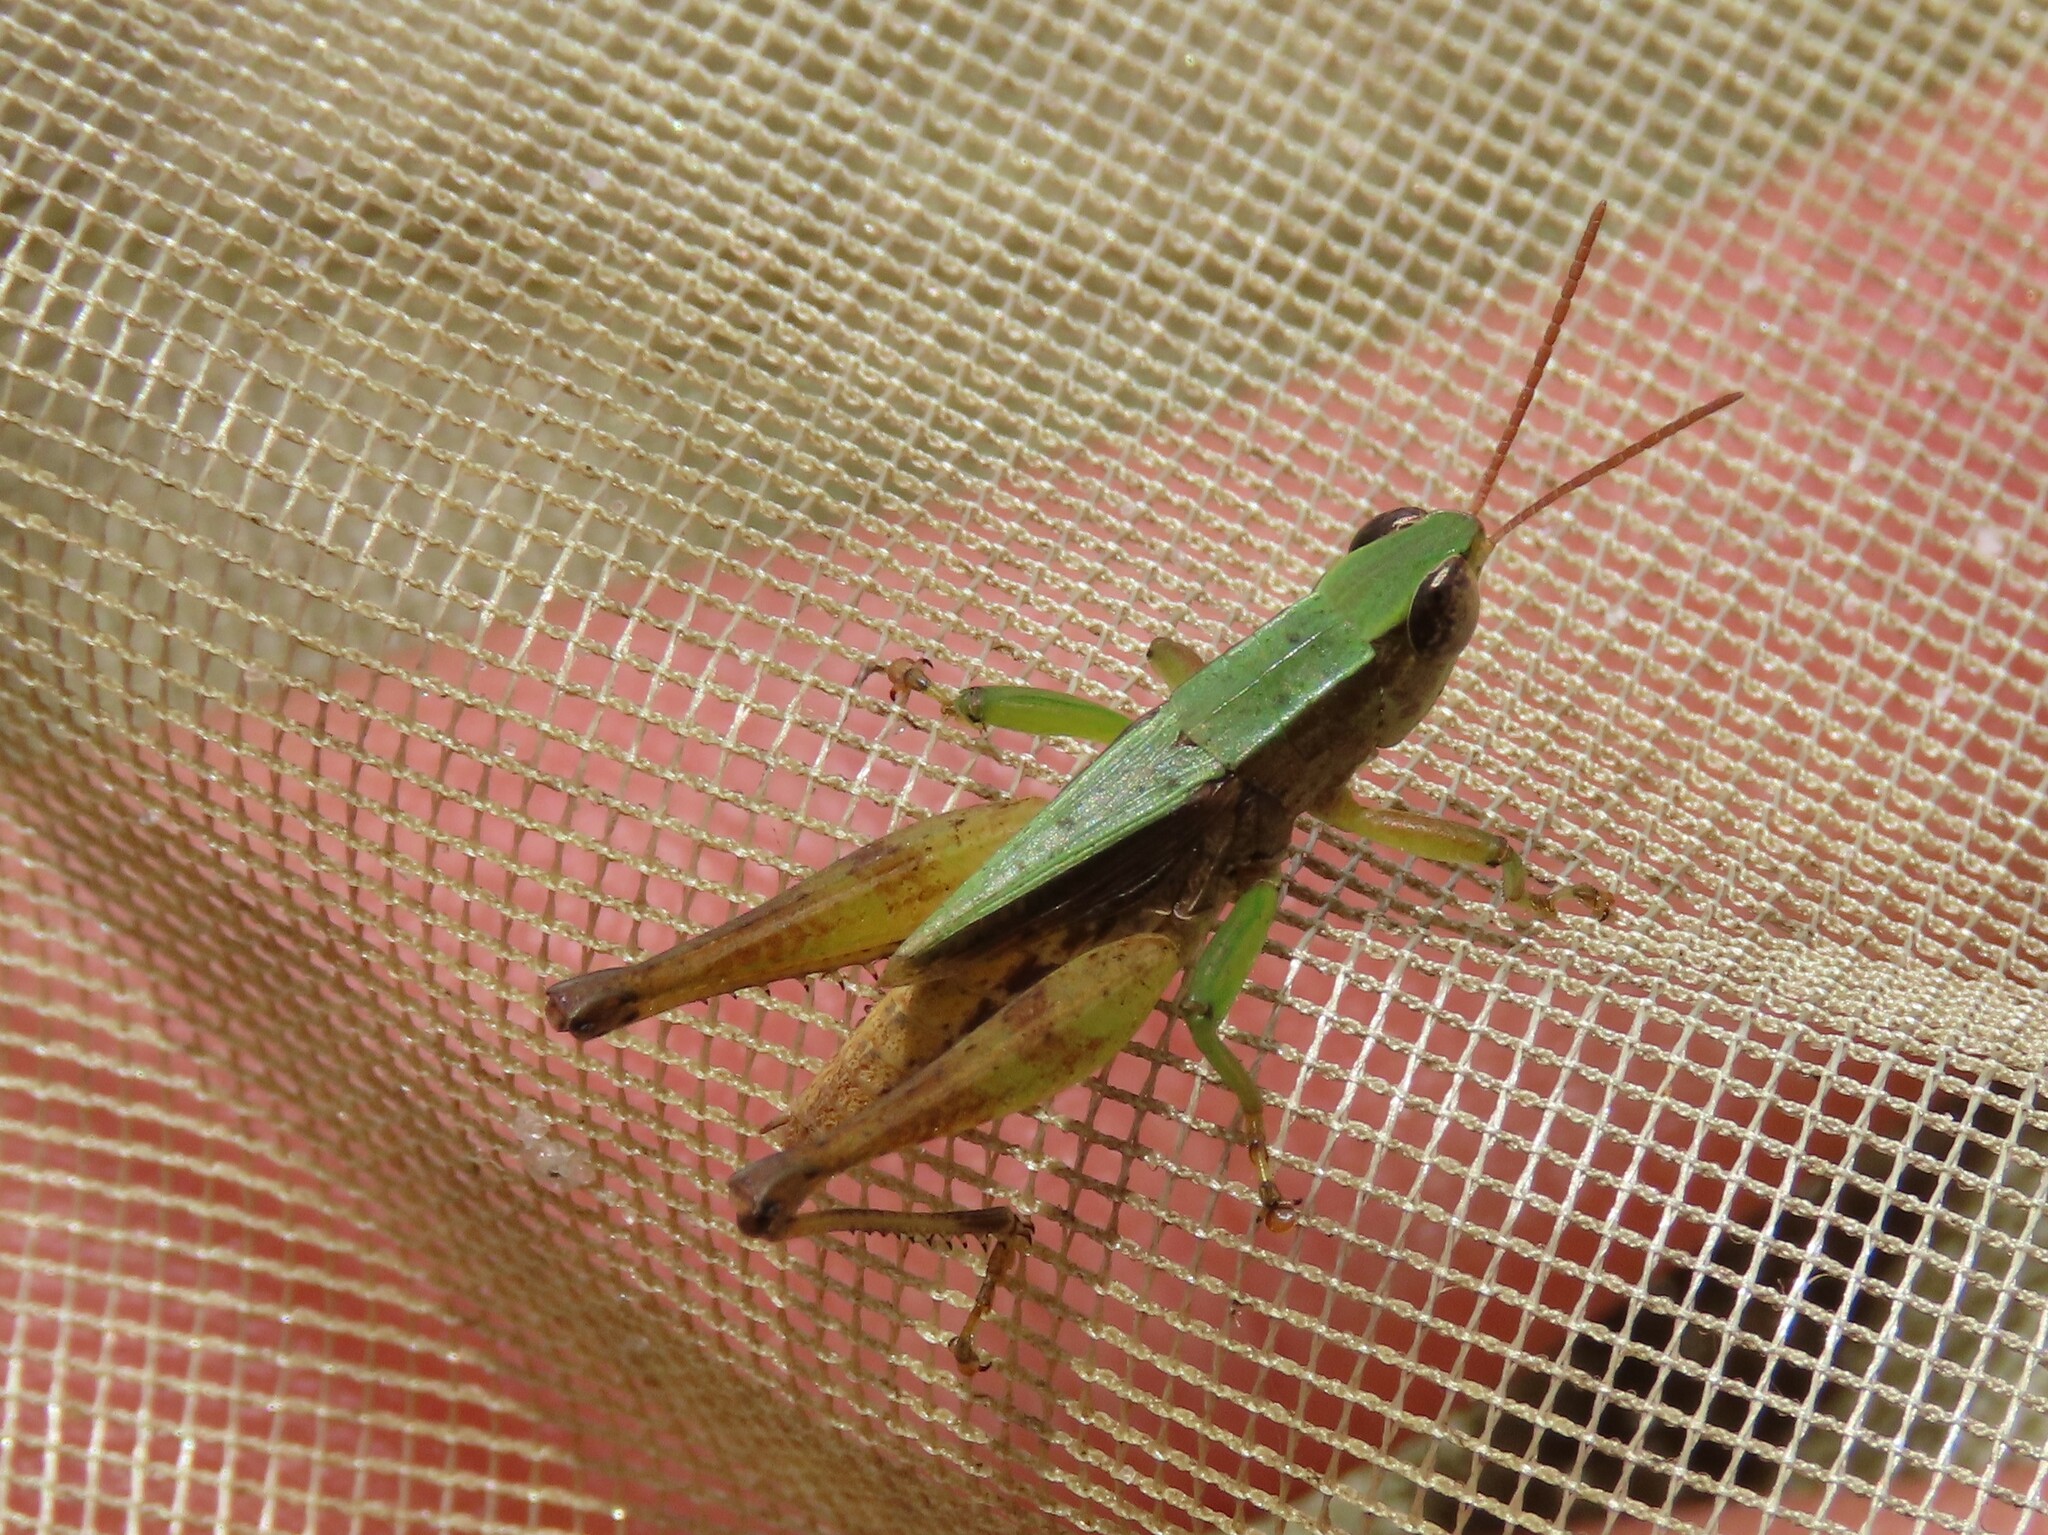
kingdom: Animalia
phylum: Arthropoda
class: Insecta
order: Orthoptera
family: Acrididae
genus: Dichromorpha
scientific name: Dichromorpha viridis
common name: Short-winged green grasshopper
